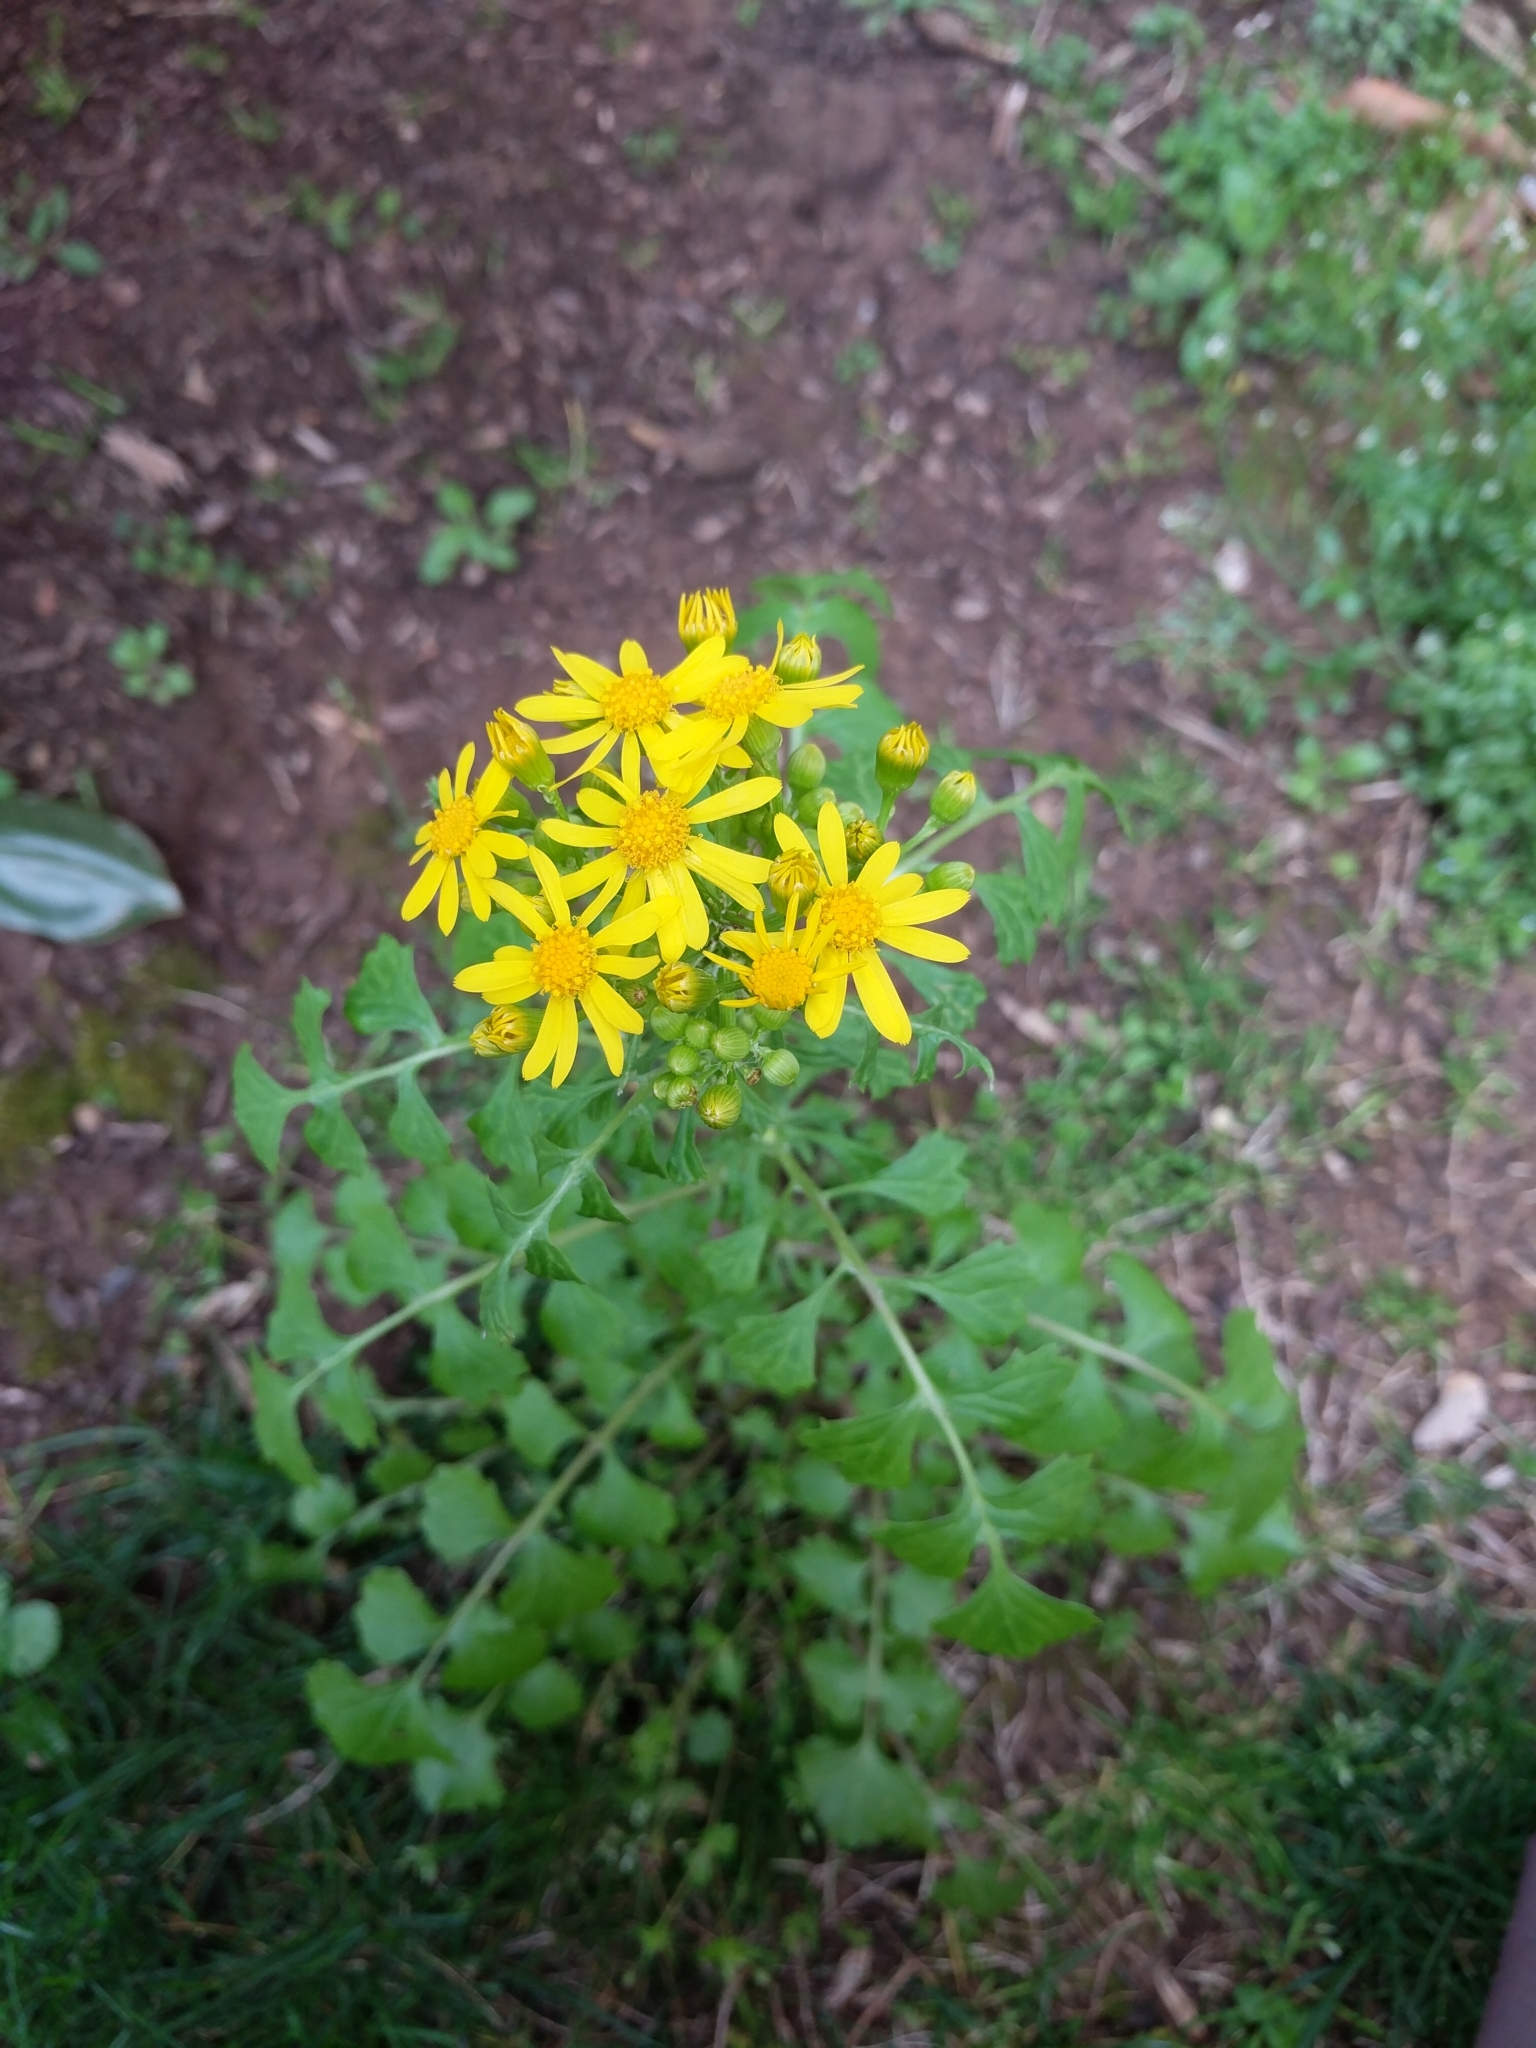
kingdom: Plantae
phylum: Tracheophyta
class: Magnoliopsida
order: Asterales
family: Asteraceae
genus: Packera
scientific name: Packera glabella
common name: Butterweed
